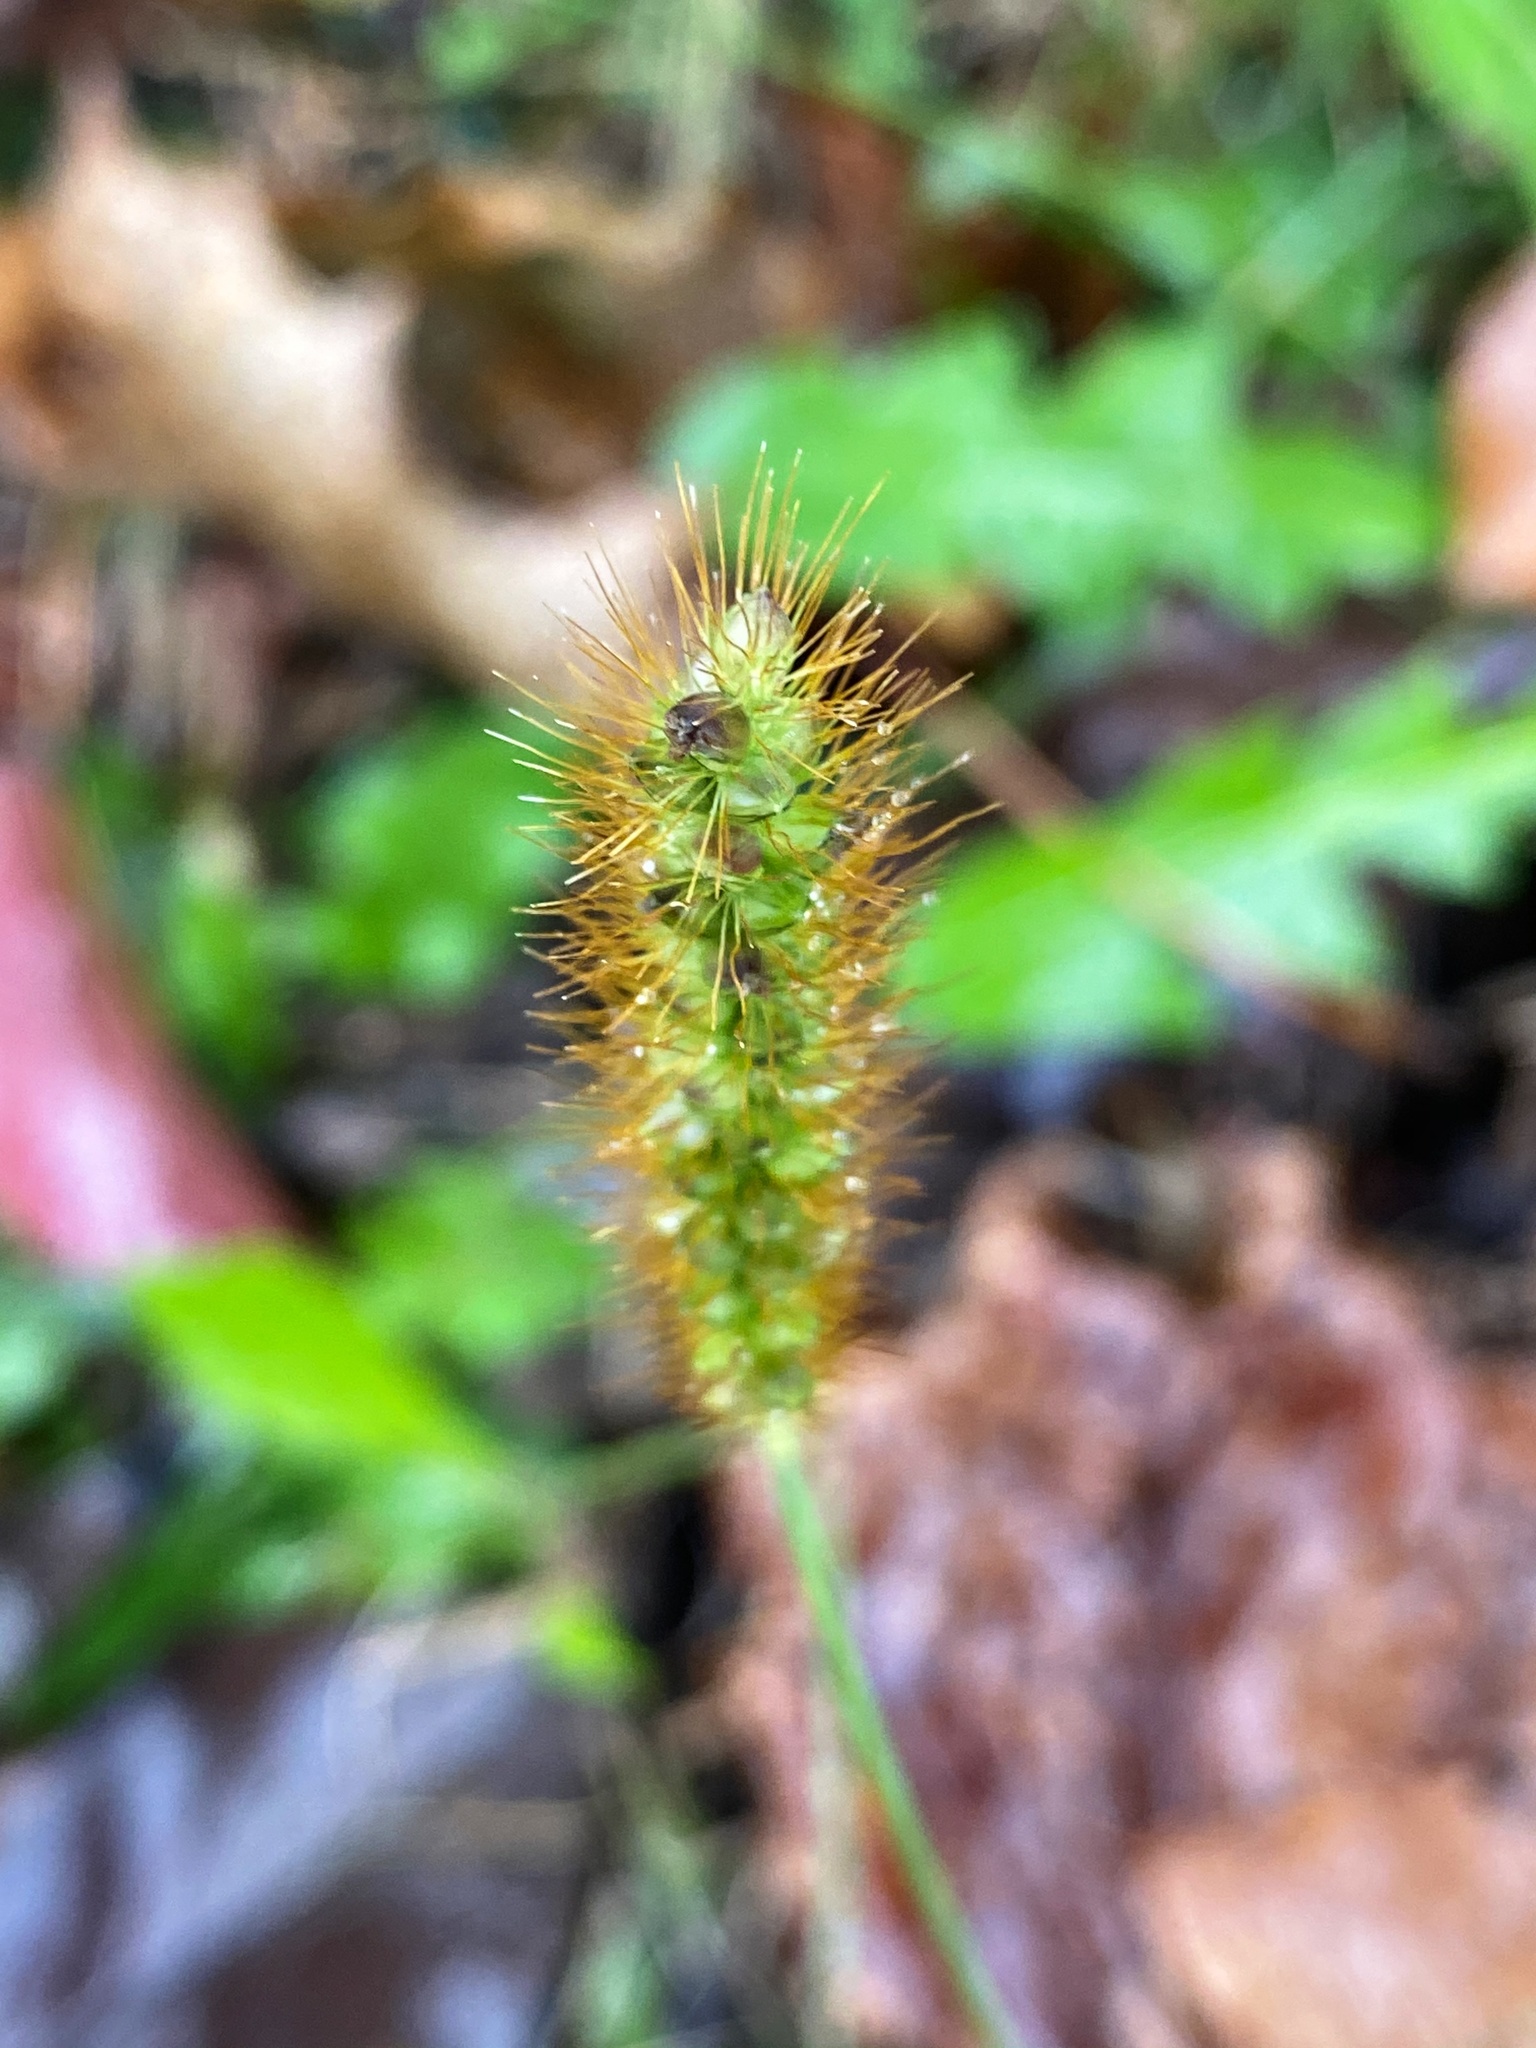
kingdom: Plantae
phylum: Tracheophyta
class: Liliopsida
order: Poales
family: Poaceae
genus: Setaria
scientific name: Setaria pumila
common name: Yellow bristle-grass
